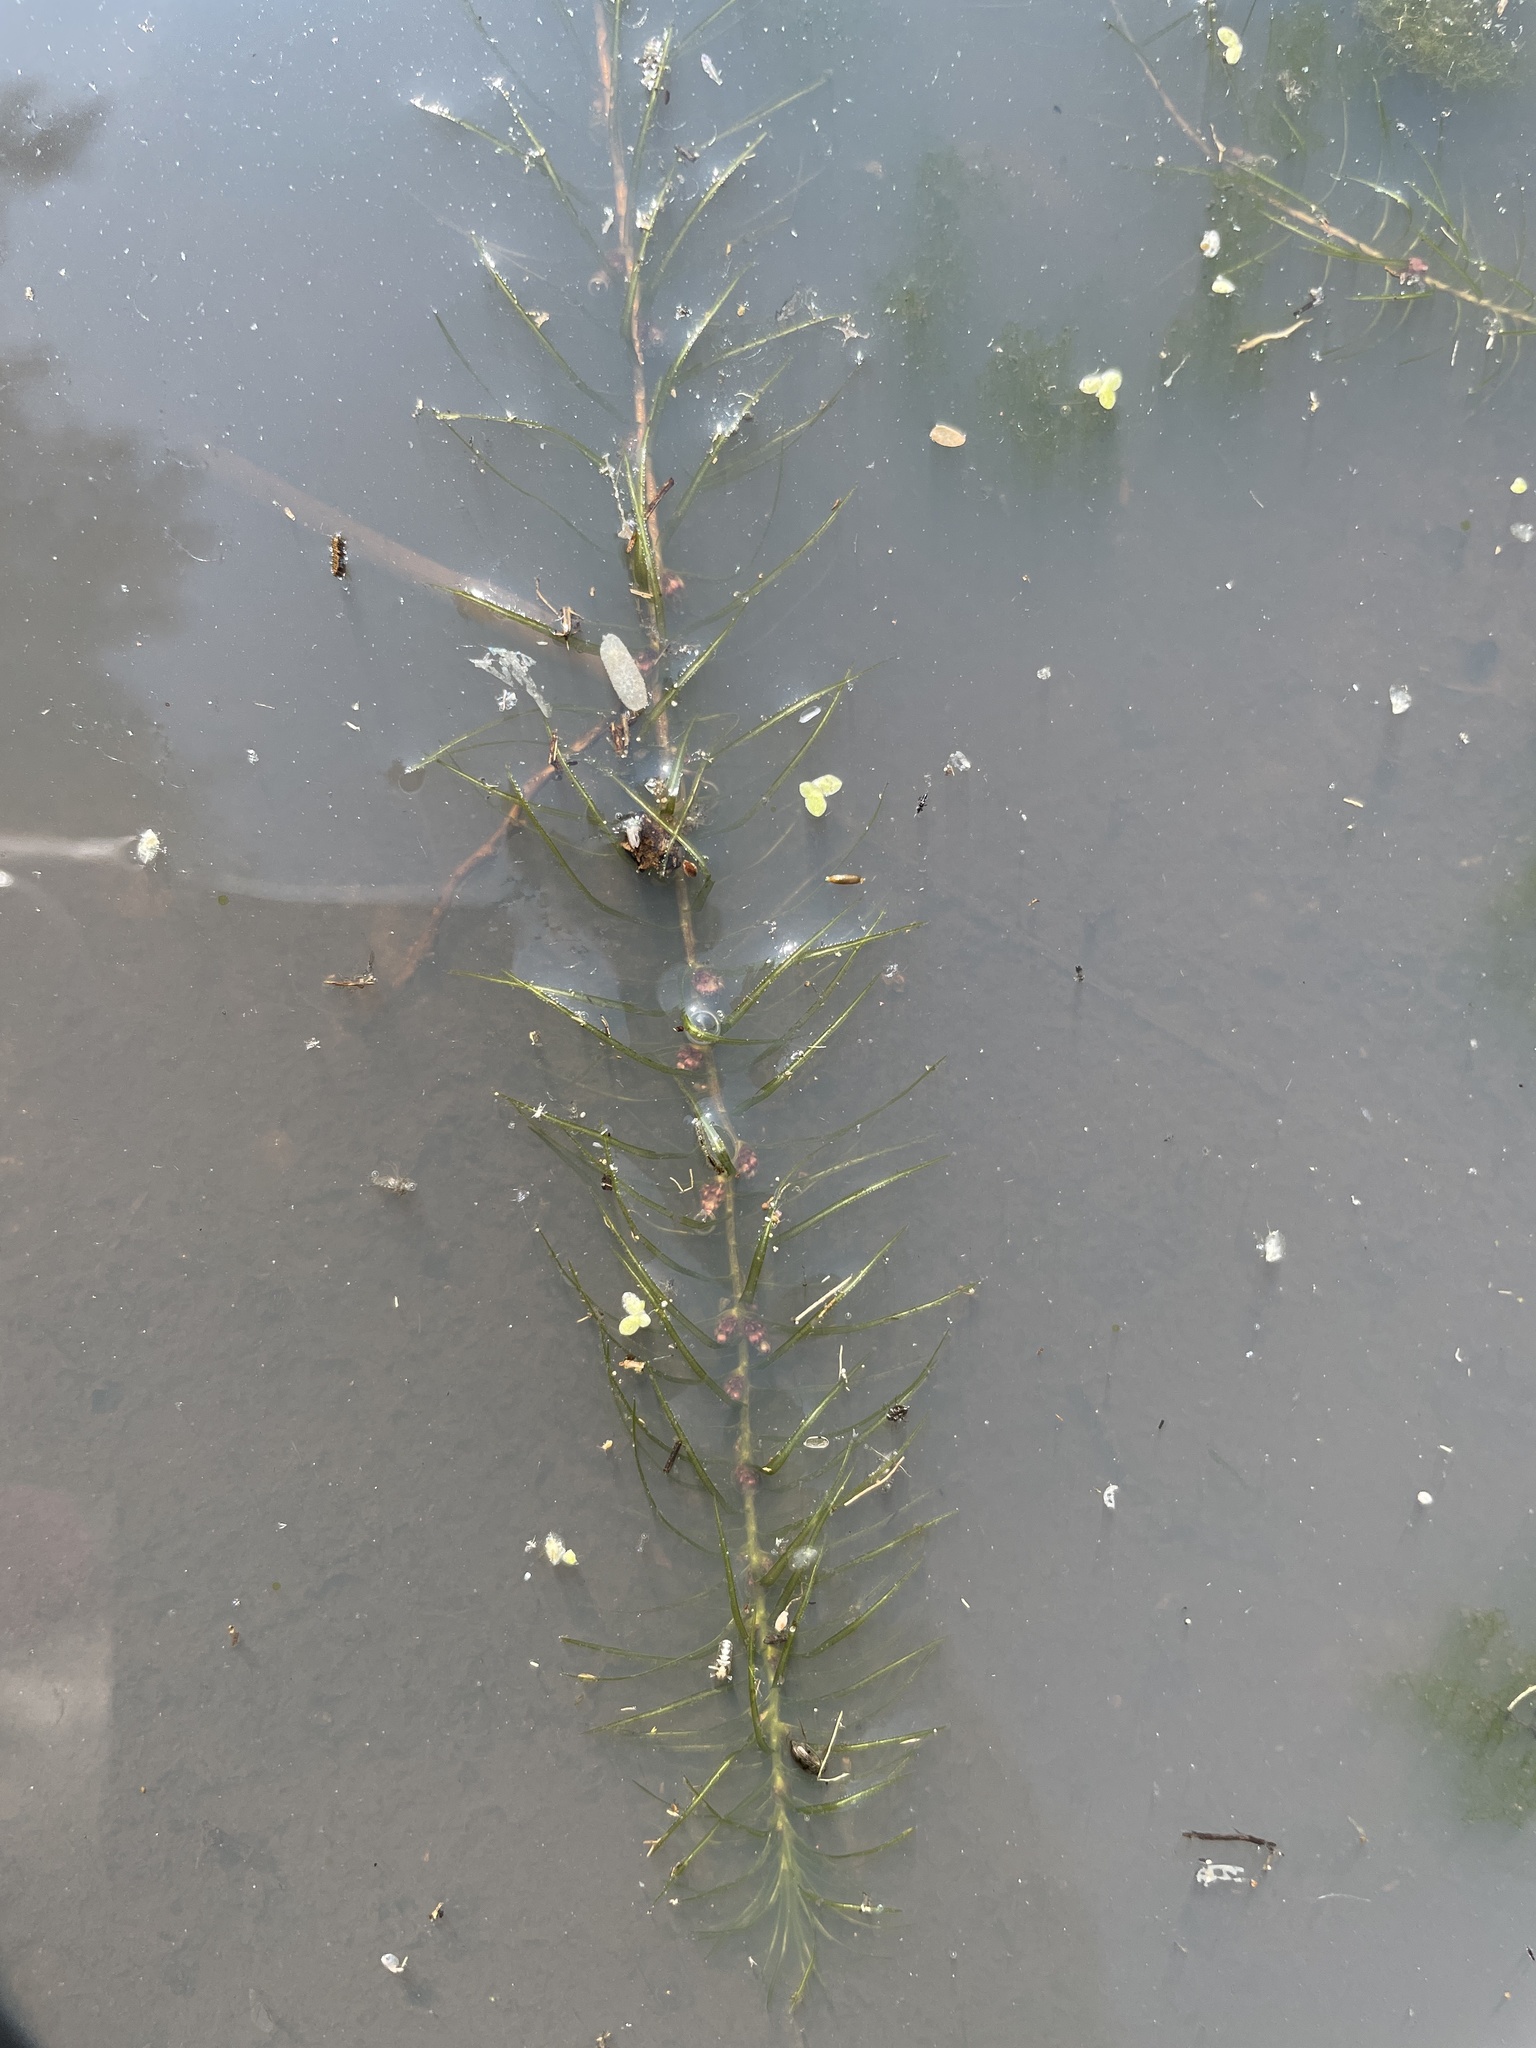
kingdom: Plantae
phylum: Tracheophyta
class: Liliopsida
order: Alismatales
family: Hydrocharitaceae
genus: Lagarosiphon
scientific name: Lagarosiphon
